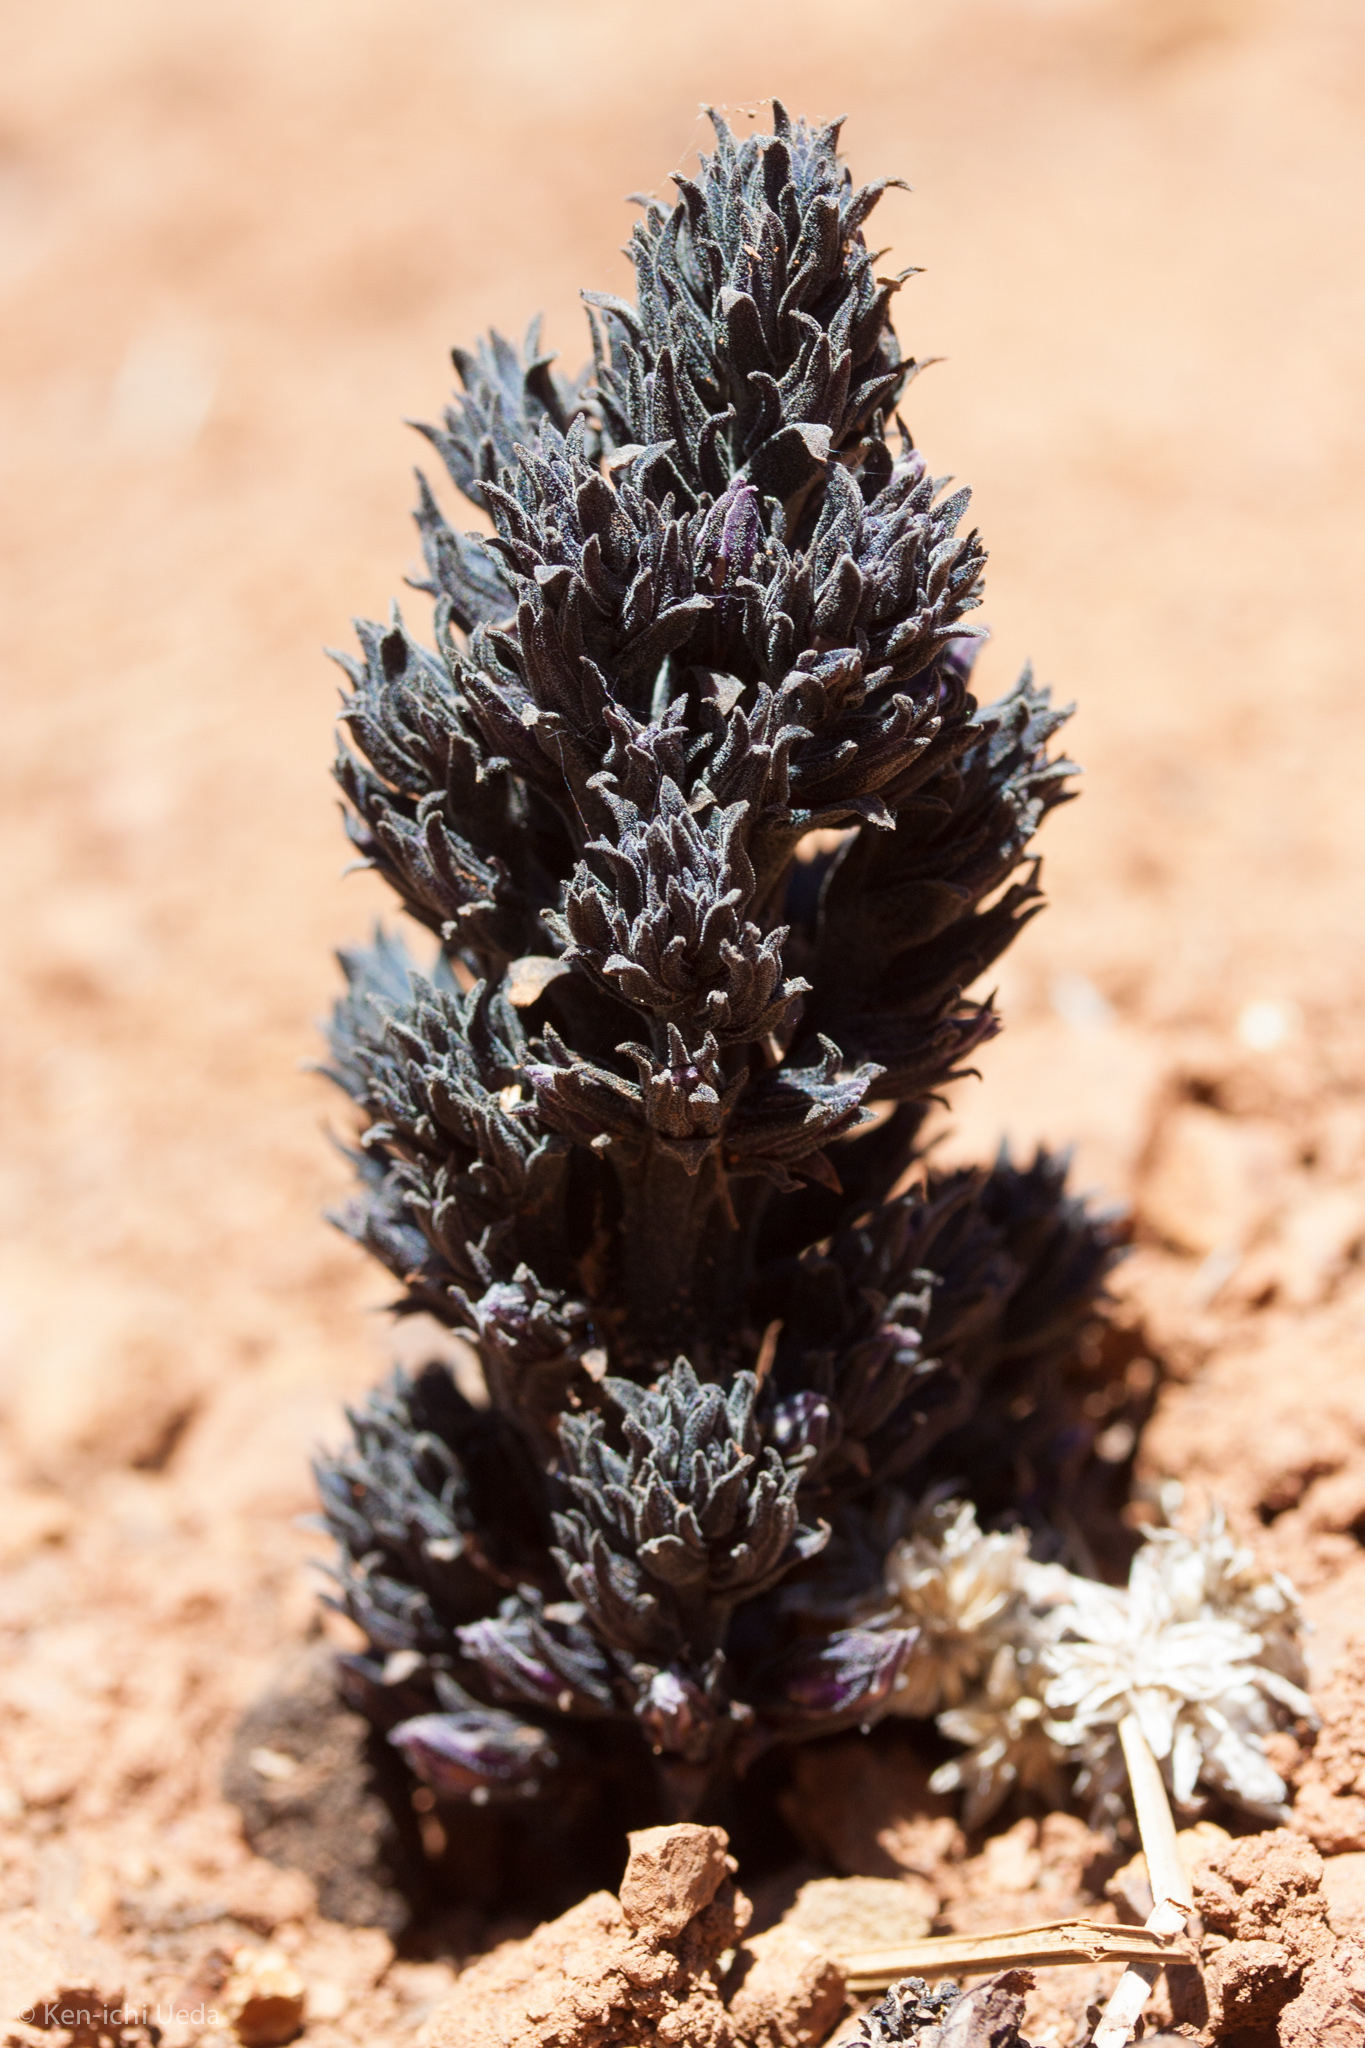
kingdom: Plantae
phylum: Tracheophyta
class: Magnoliopsida
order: Lamiales
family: Orobanchaceae
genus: Aphyllon
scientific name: Aphyllon tuberosum
